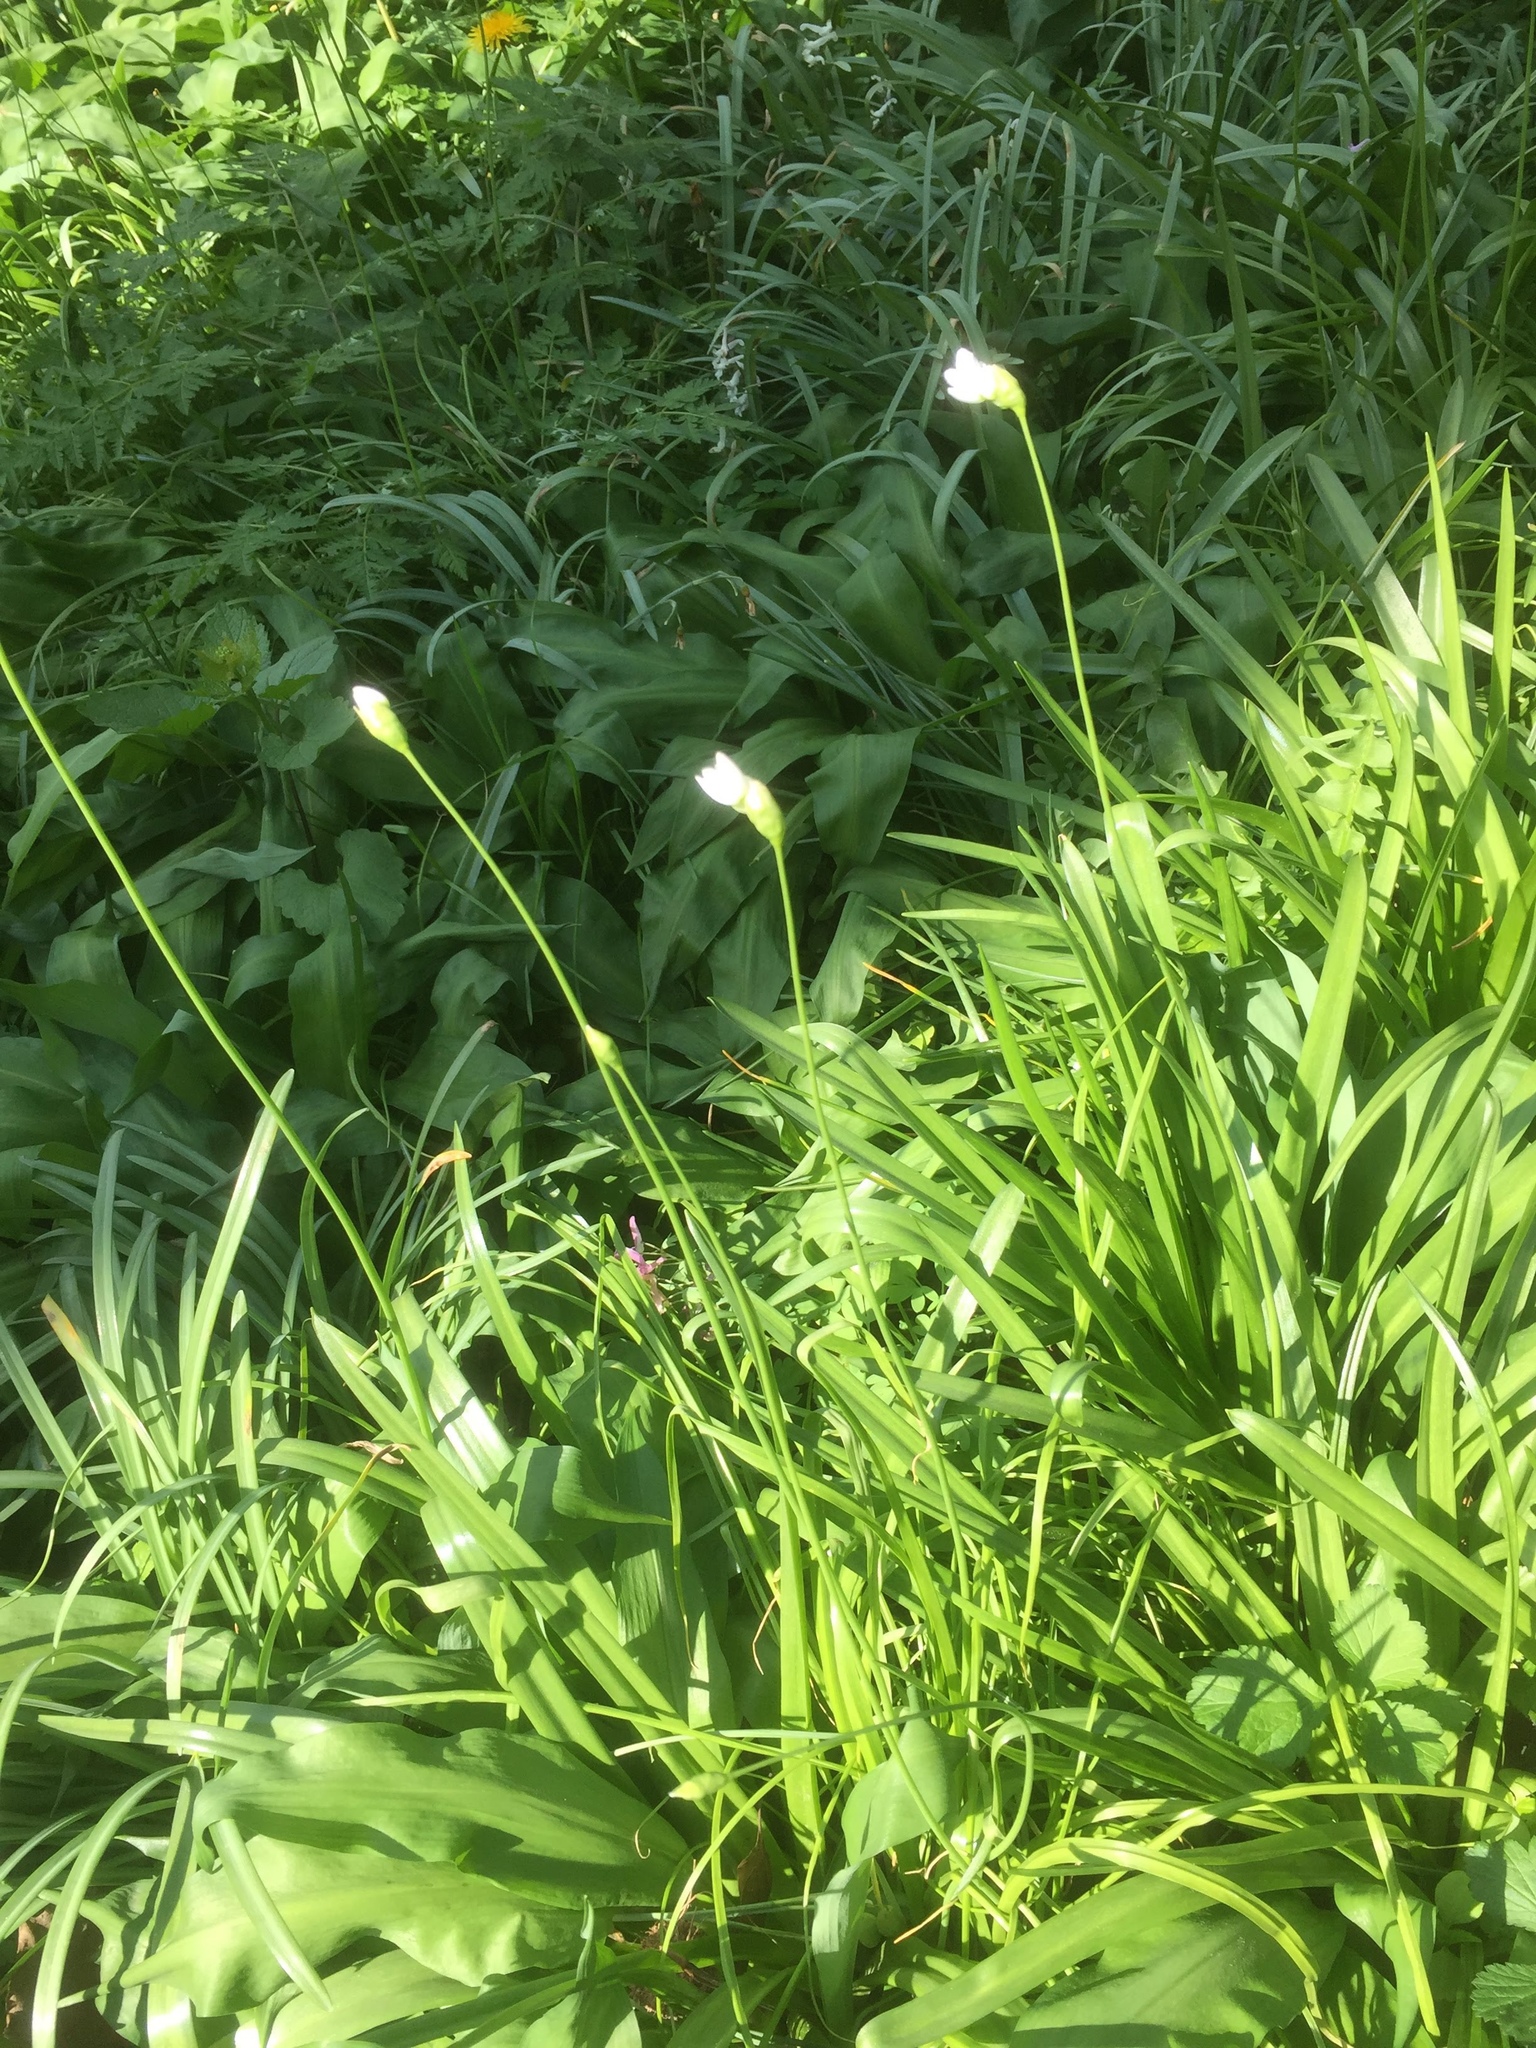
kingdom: Plantae
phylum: Tracheophyta
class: Liliopsida
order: Asparagales
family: Amaryllidaceae
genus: Allium
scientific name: Allium neapolitanum
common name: Neapolitan garlic
